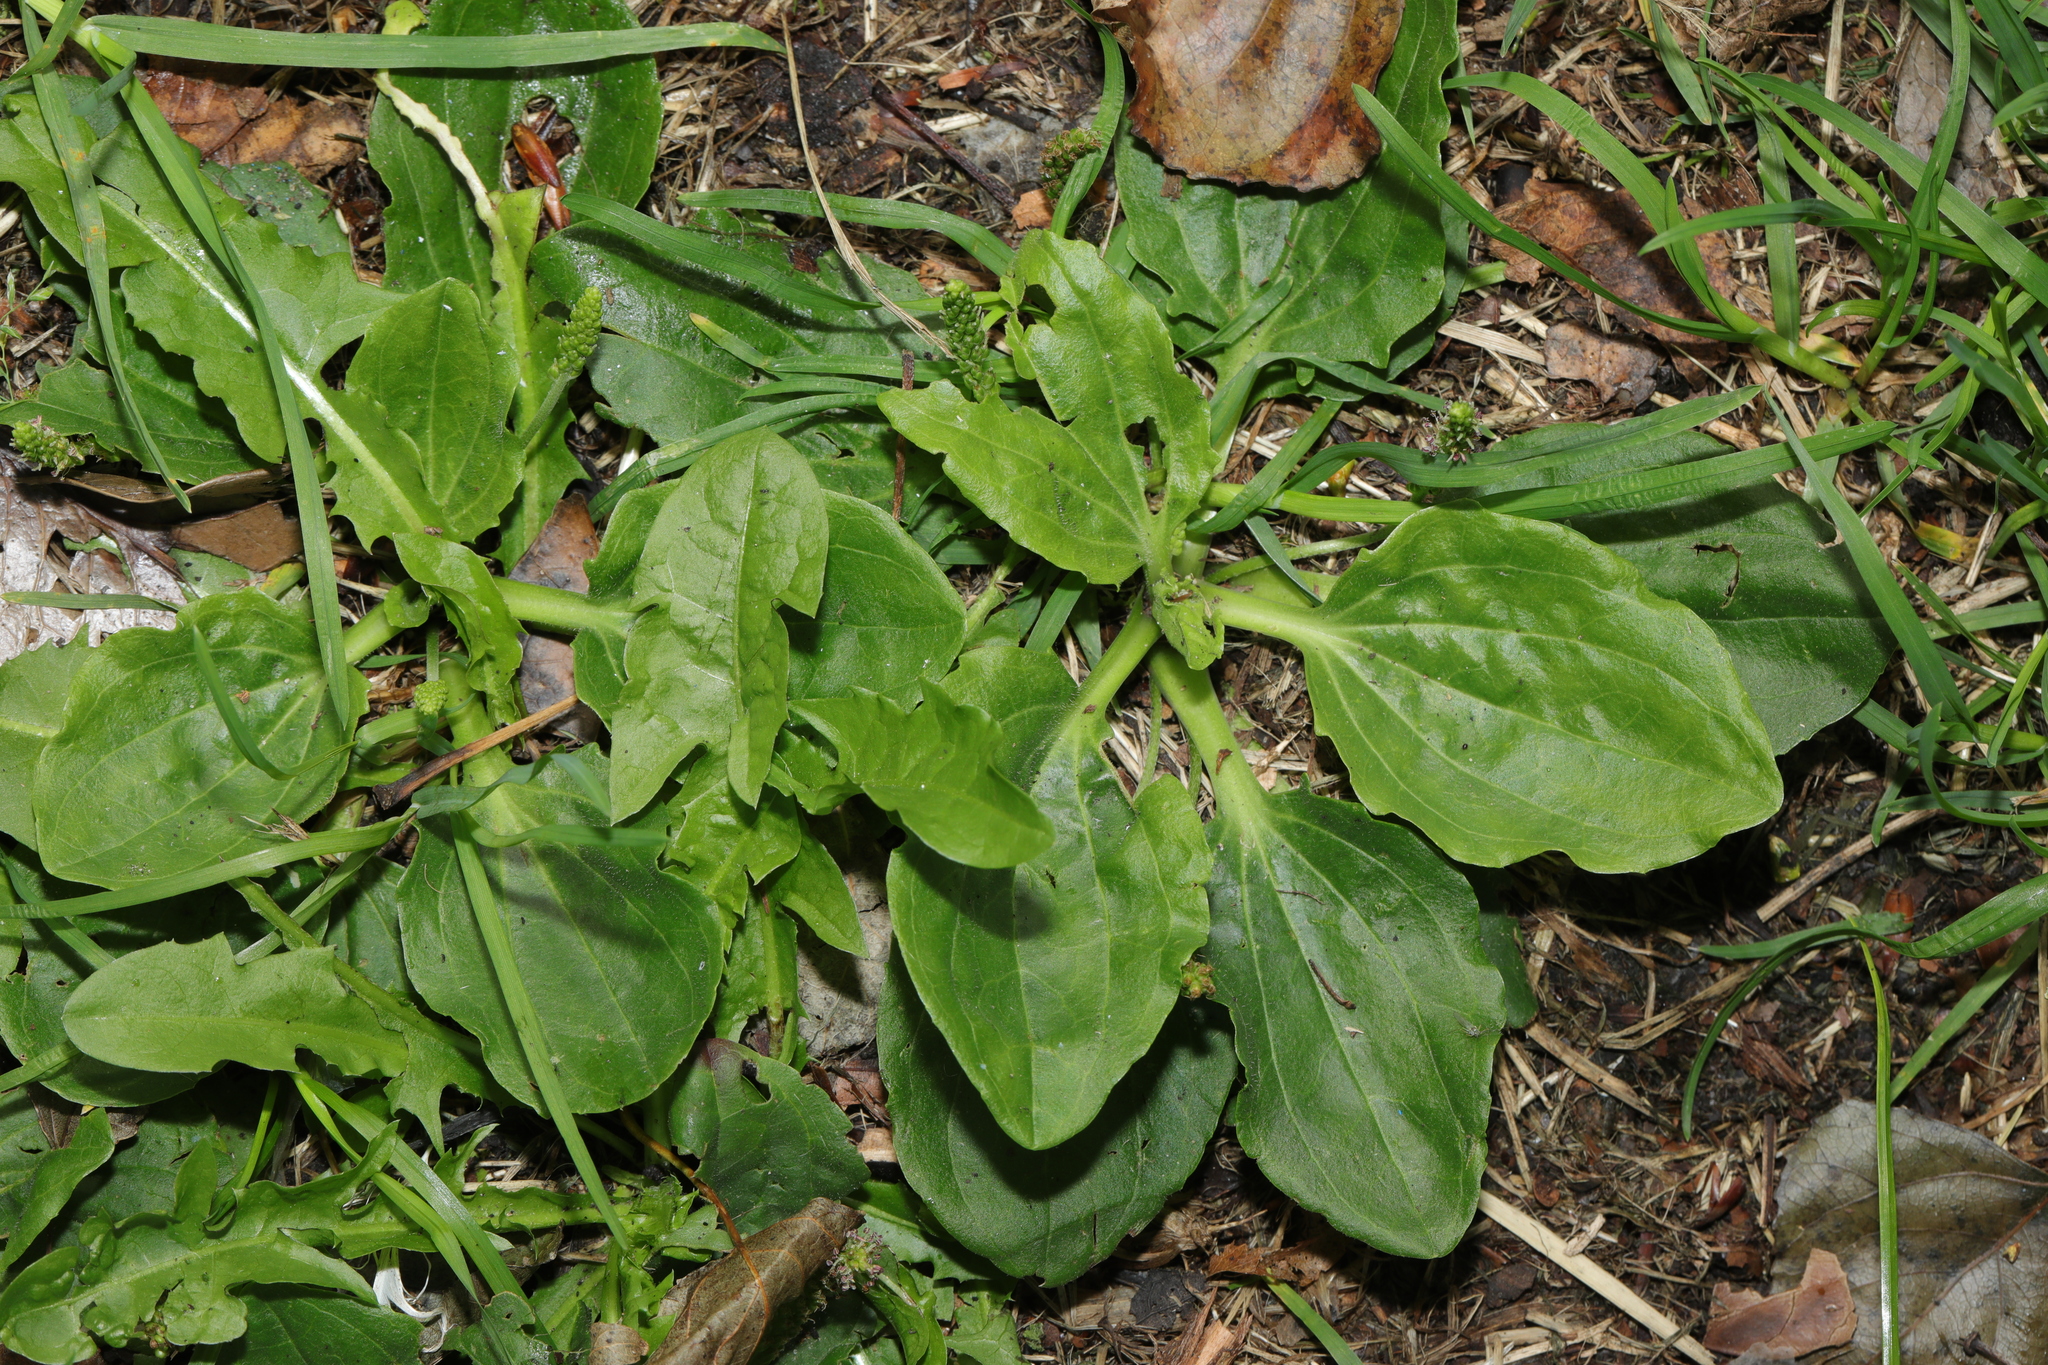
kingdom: Plantae
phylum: Tracheophyta
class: Magnoliopsida
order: Lamiales
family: Plantaginaceae
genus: Plantago
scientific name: Plantago major
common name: Common plantain
